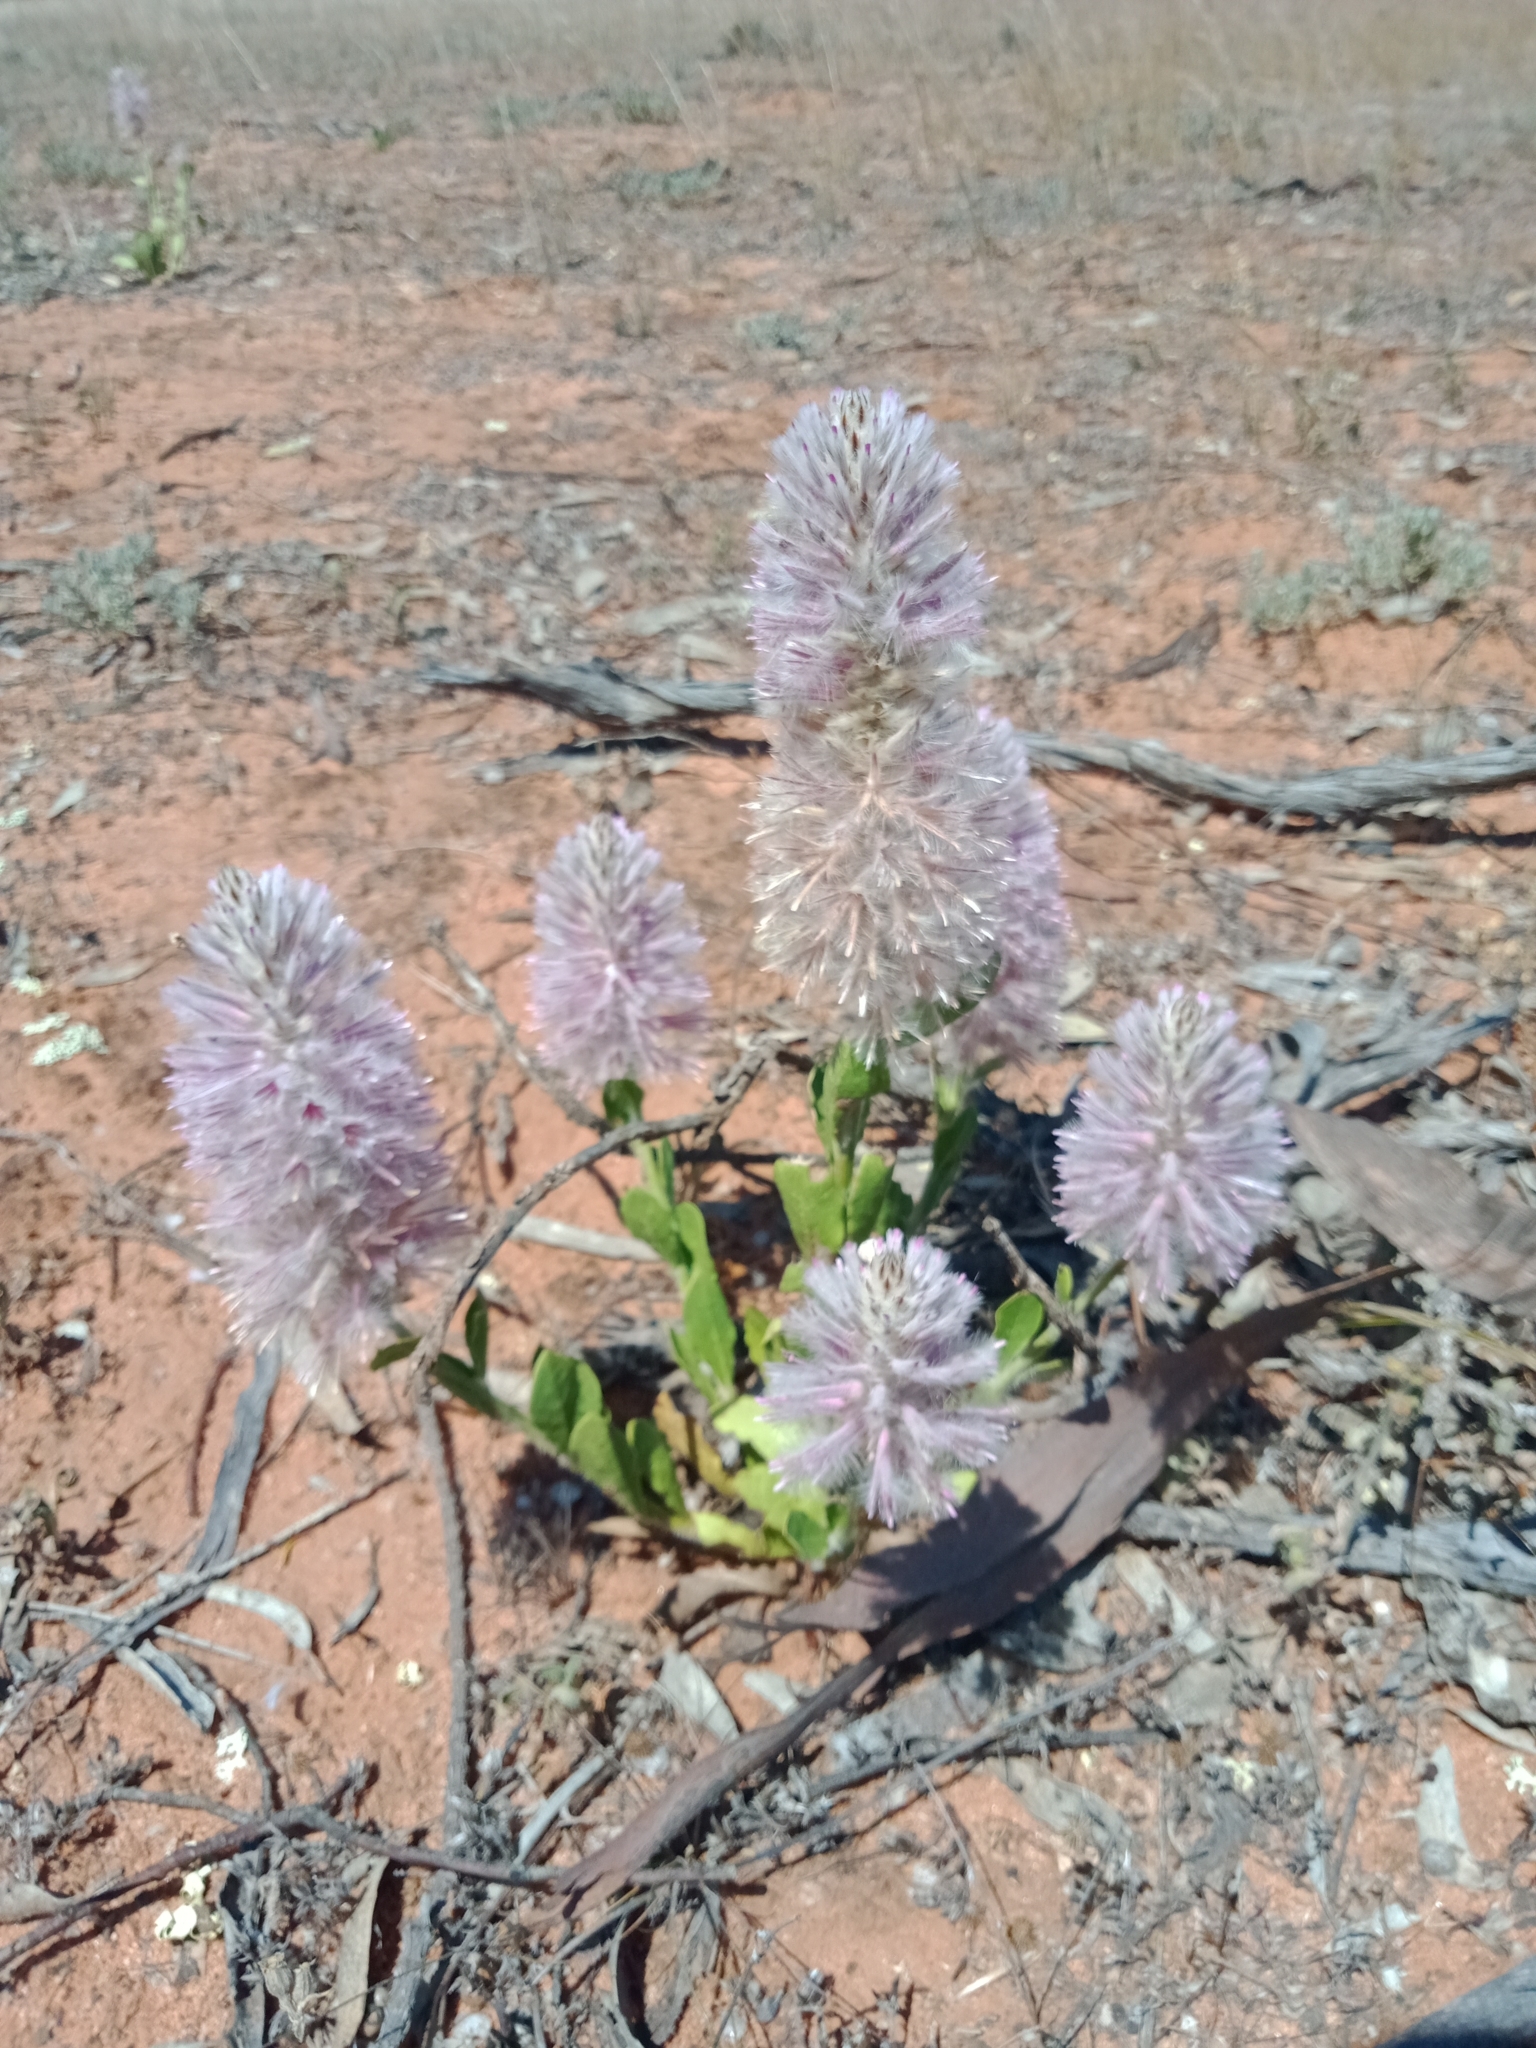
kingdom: Plantae
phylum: Tracheophyta
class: Magnoliopsida
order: Caryophyllales
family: Amaranthaceae
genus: Ptilotus
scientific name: Ptilotus exaltatus
